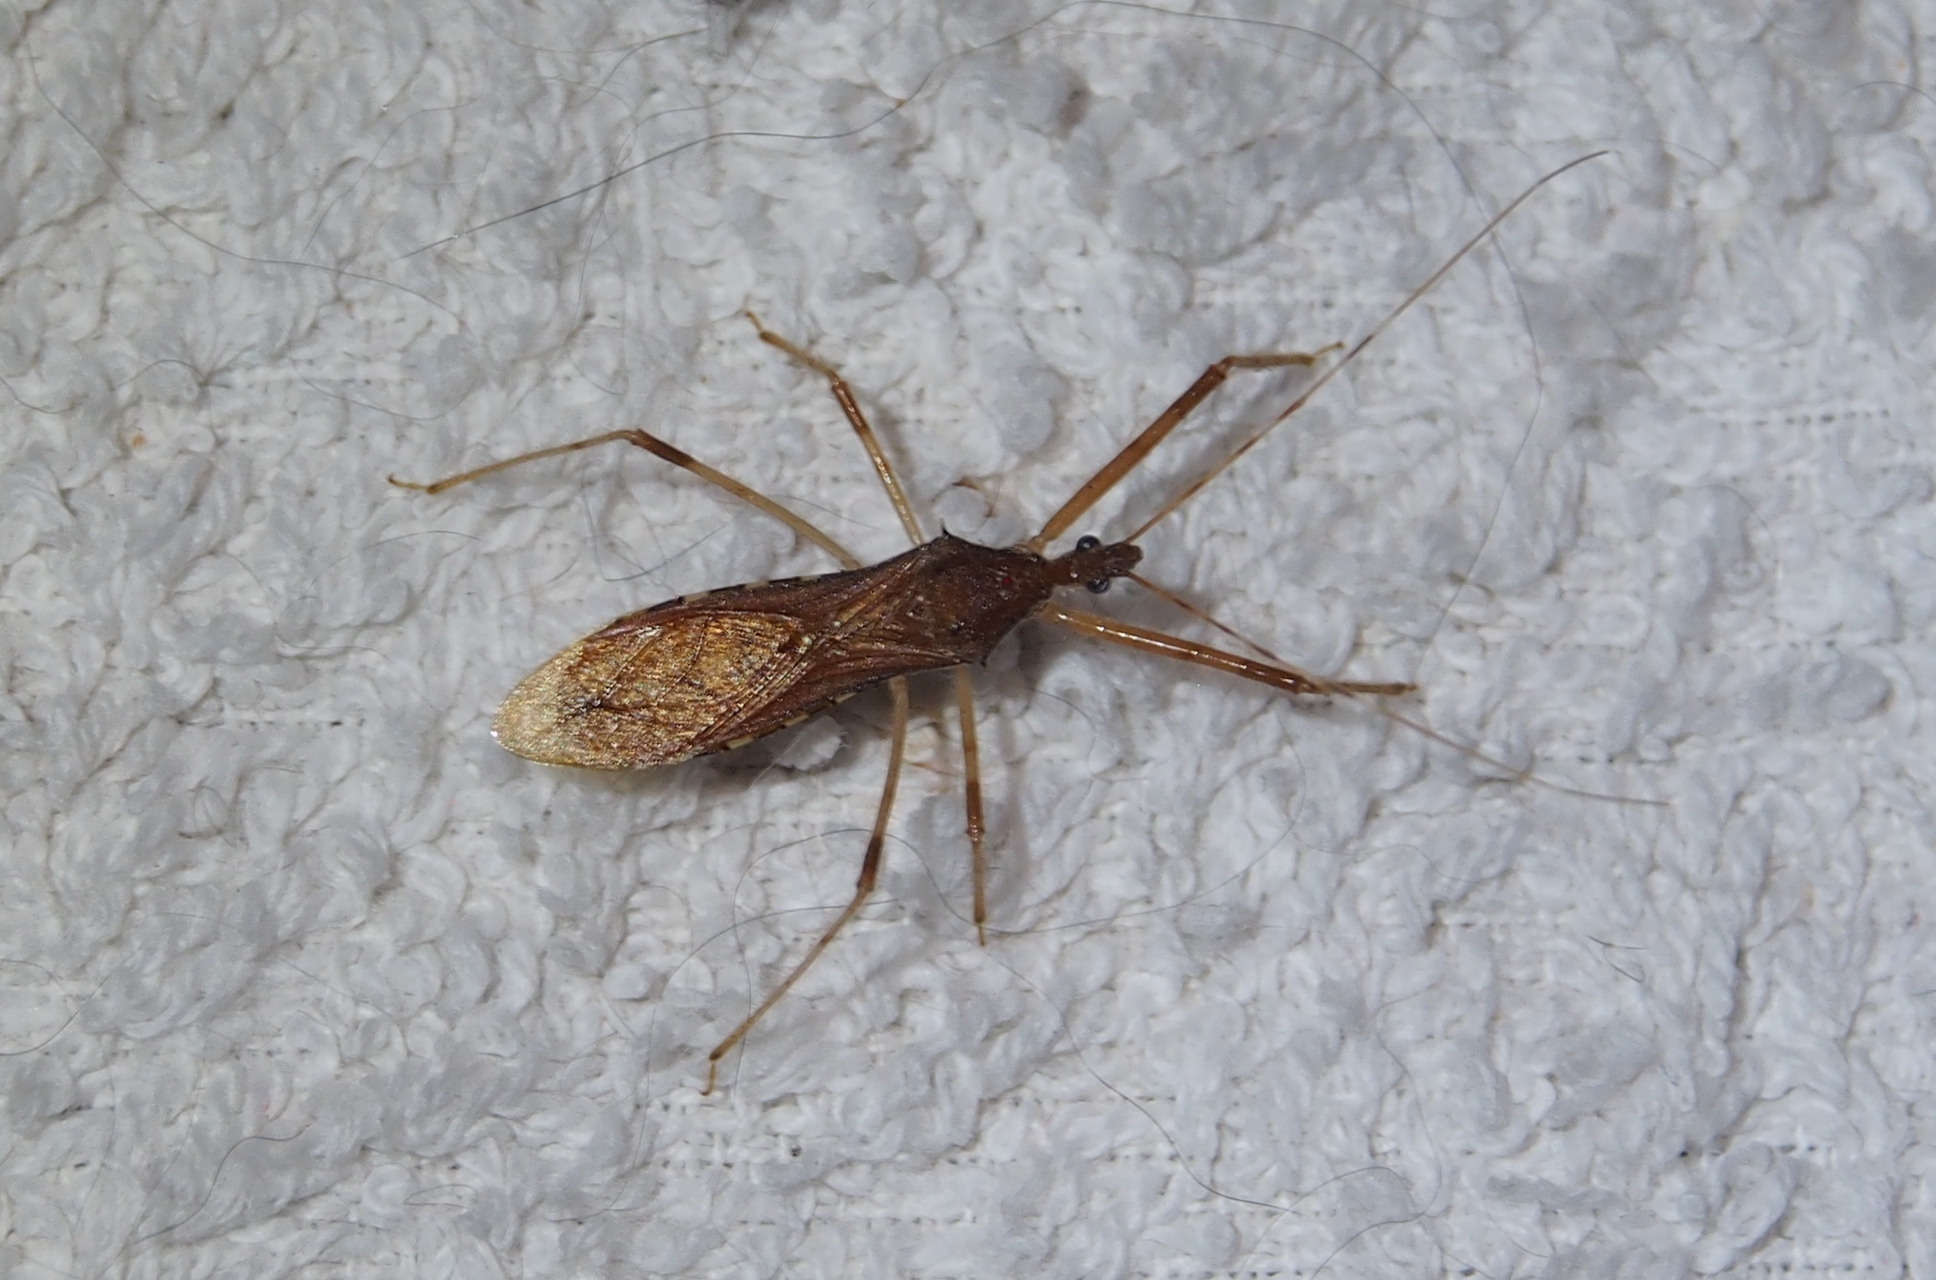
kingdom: Animalia
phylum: Arthropoda
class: Insecta
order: Hemiptera
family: Reduviidae
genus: Rocconota
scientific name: Rocconota annulicornis
